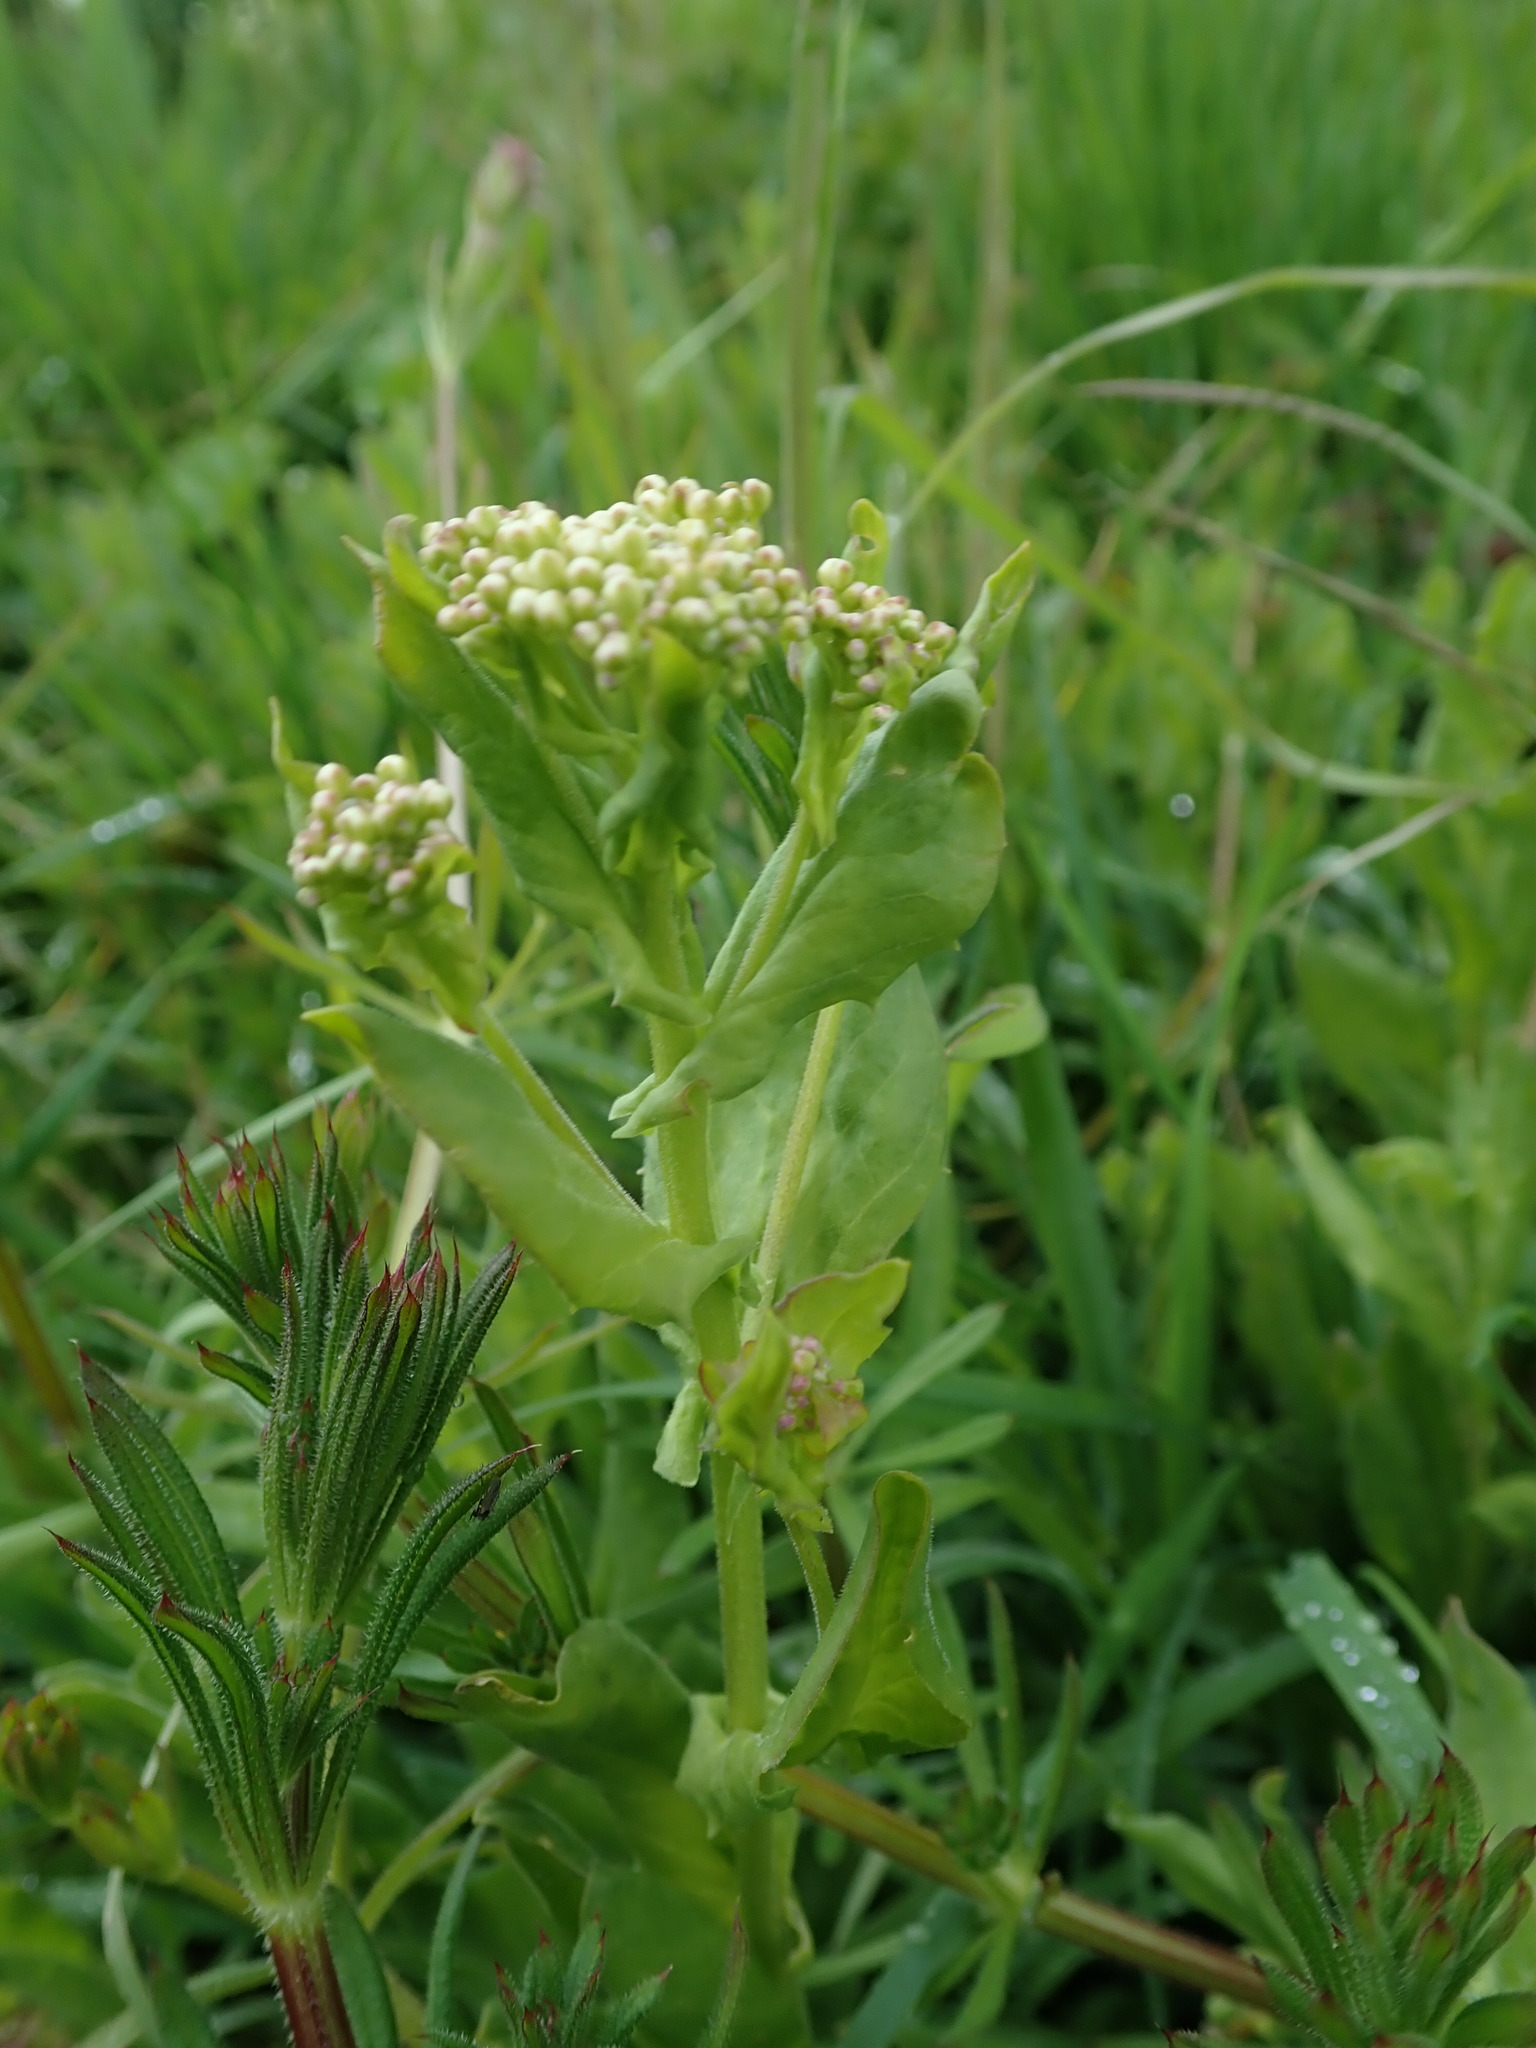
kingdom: Plantae
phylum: Tracheophyta
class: Magnoliopsida
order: Brassicales
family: Brassicaceae
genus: Lepidium
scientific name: Lepidium draba
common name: Hoary cress
